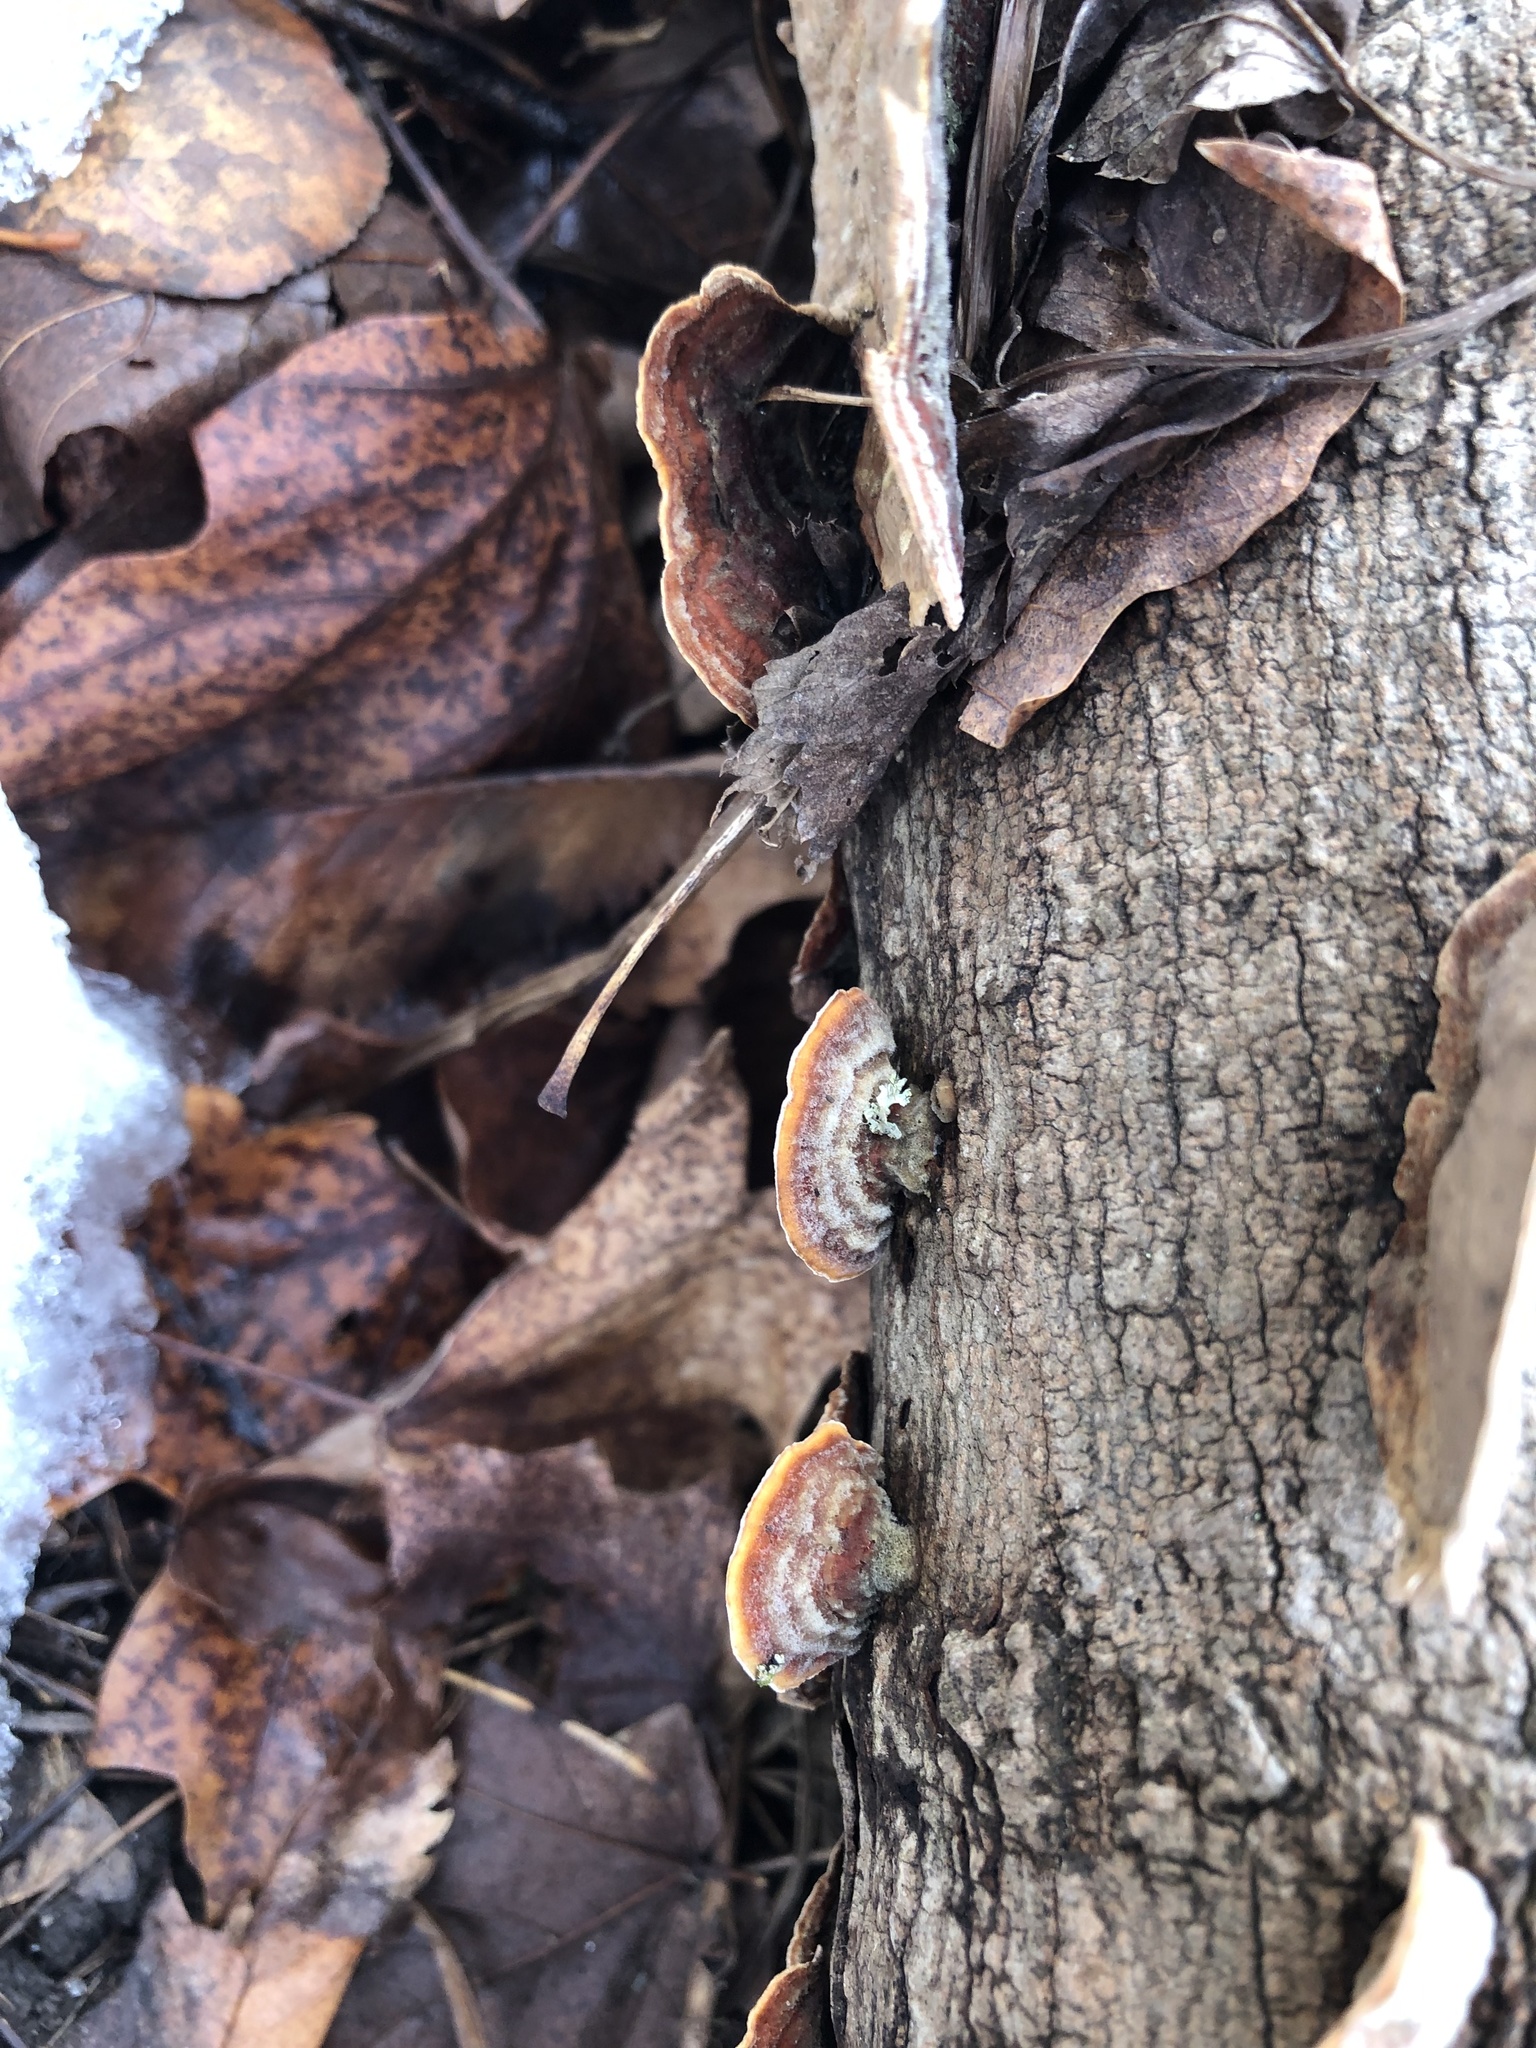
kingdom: Fungi
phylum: Basidiomycota
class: Agaricomycetes
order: Russulales
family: Stereaceae
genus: Stereum
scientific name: Stereum lobatum
